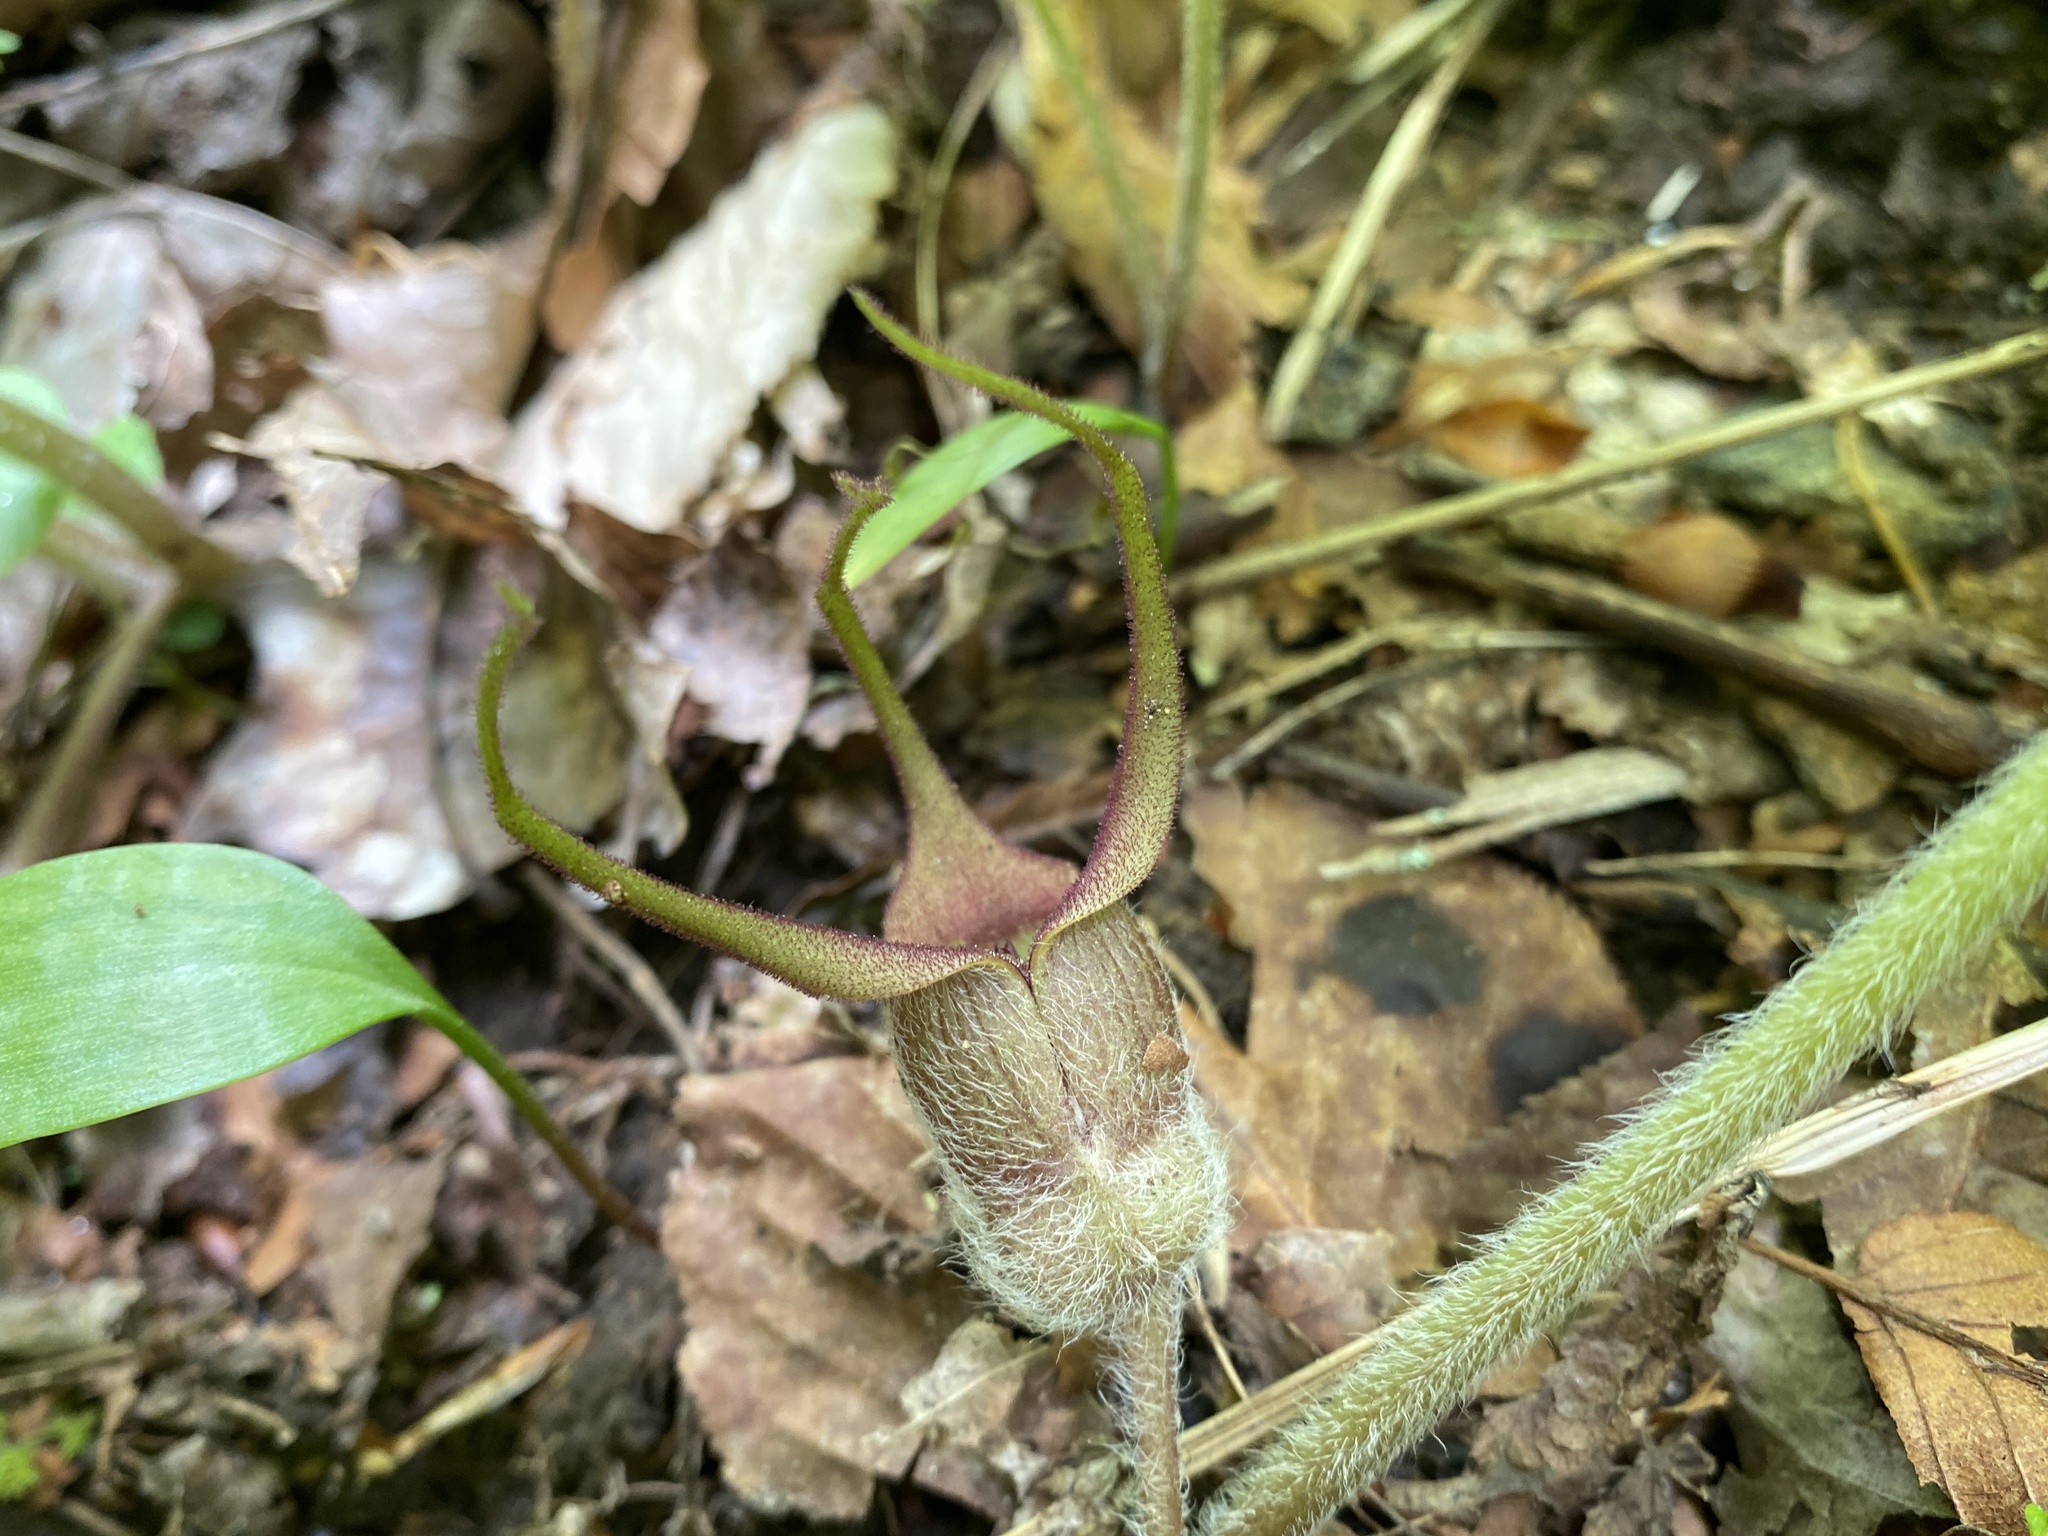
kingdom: Plantae
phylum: Tracheophyta
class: Magnoliopsida
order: Piperales
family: Aristolochiaceae
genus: Asarum
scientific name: Asarum canadense
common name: Wild ginger
